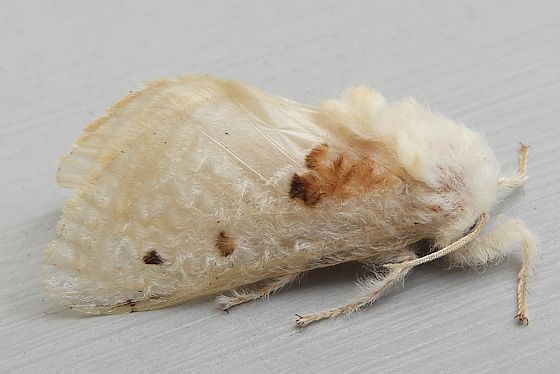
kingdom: Animalia
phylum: Arthropoda
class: Insecta
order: Lepidoptera
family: Megalopygidae
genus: Megalopyge
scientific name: Megalopyge lapena
